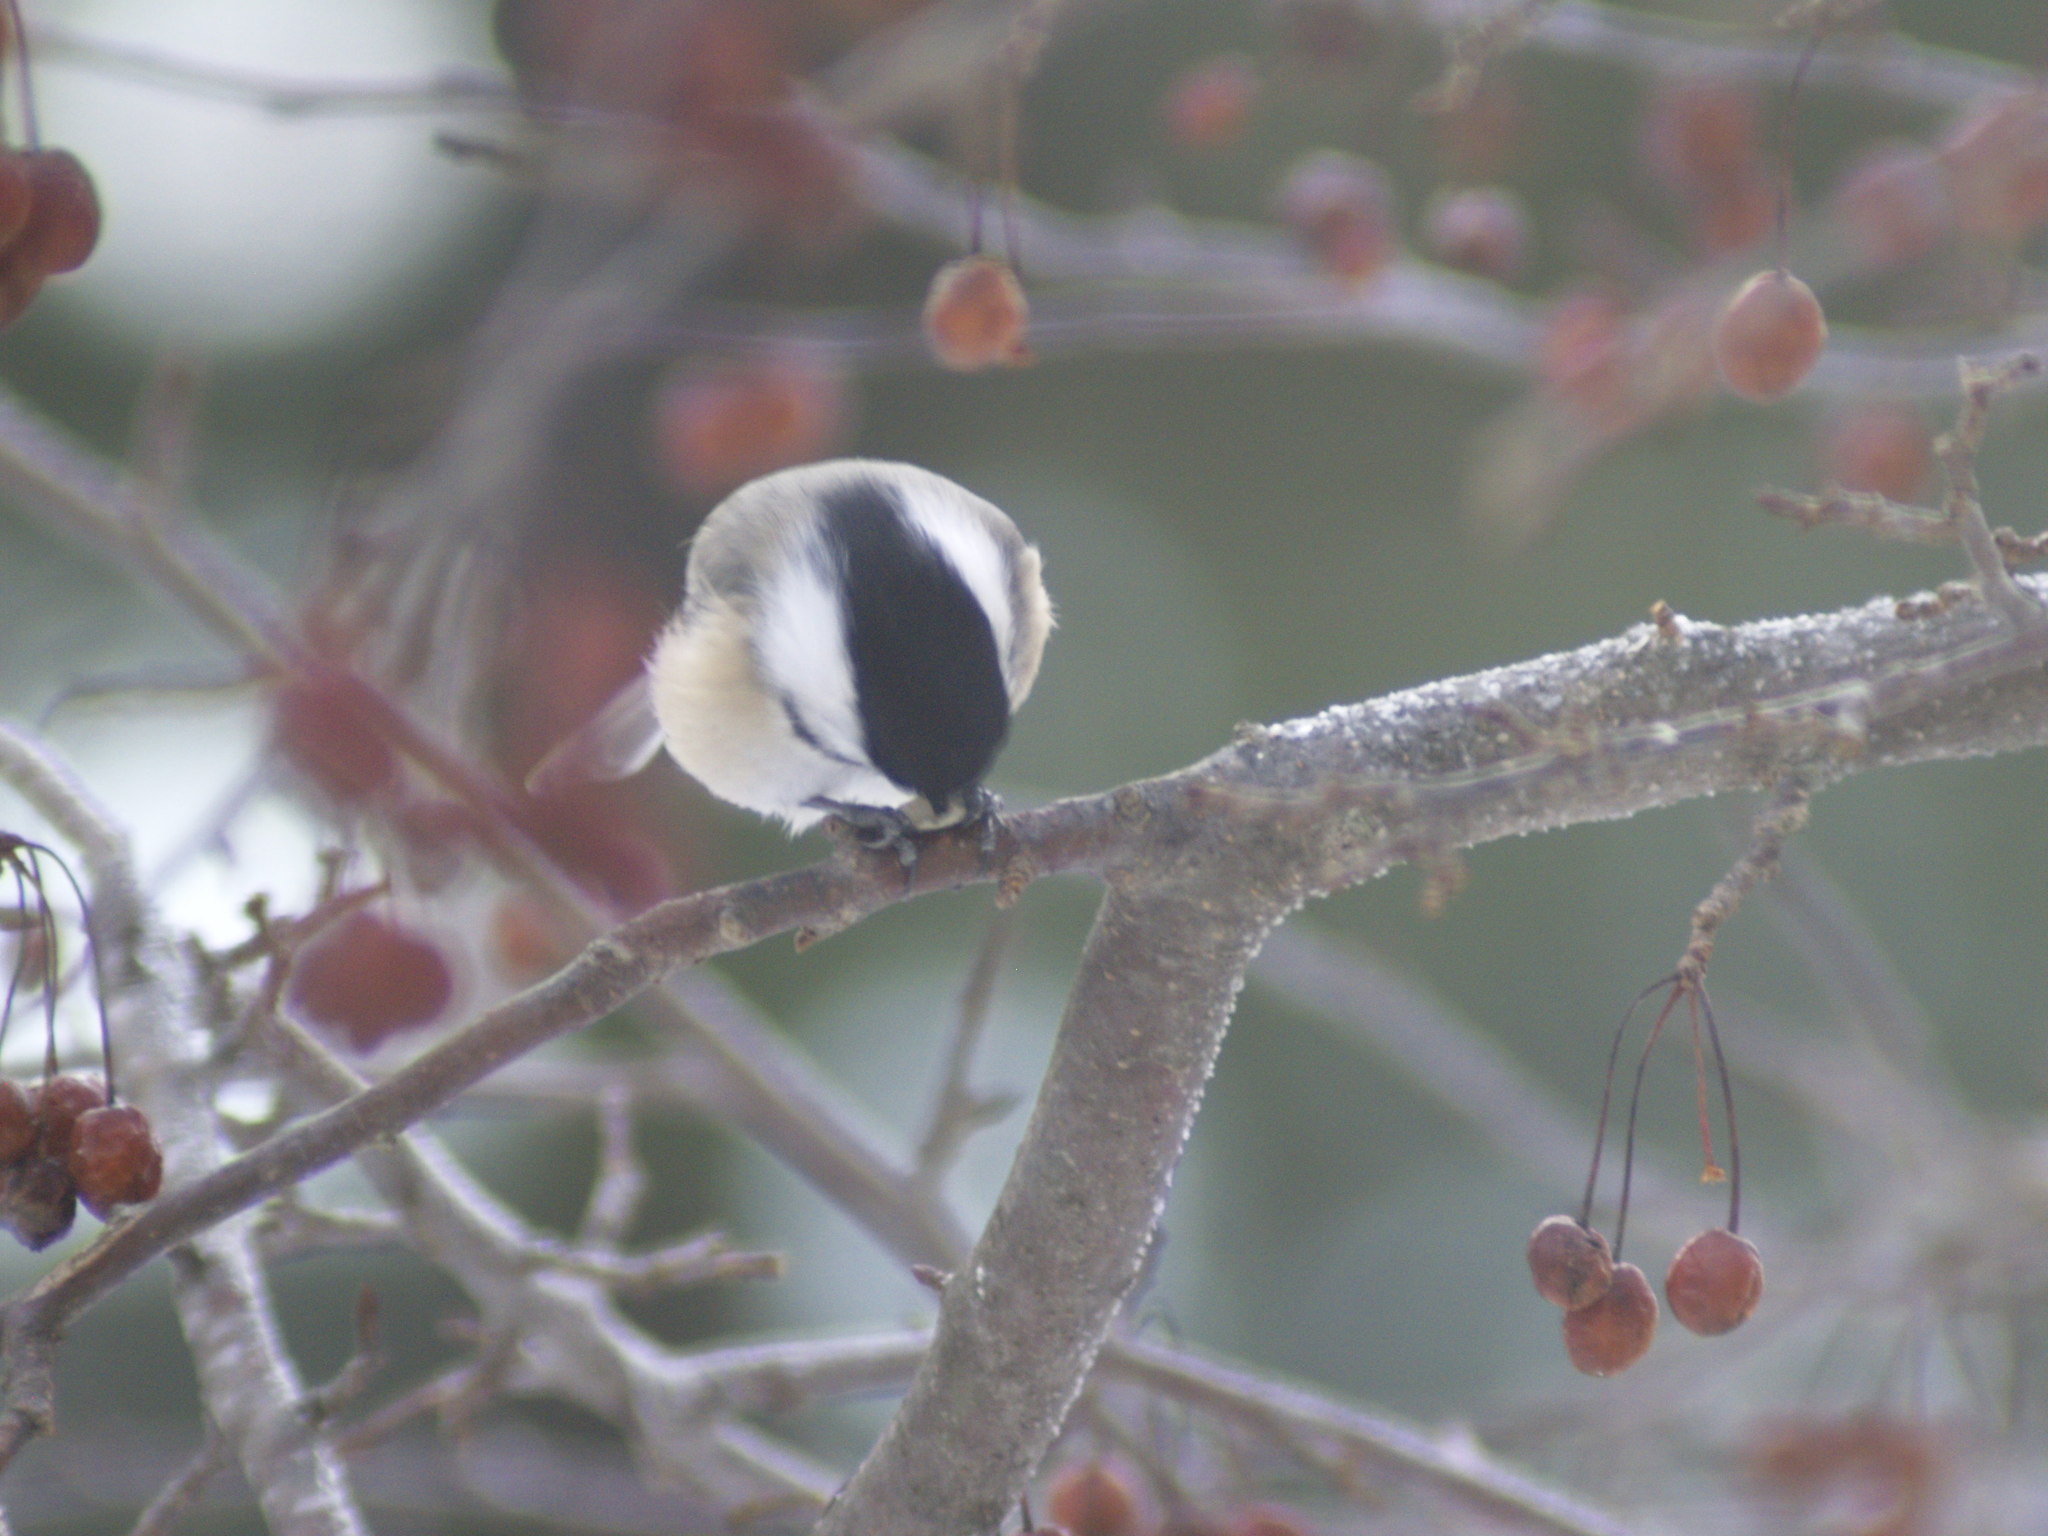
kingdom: Animalia
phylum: Chordata
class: Aves
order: Passeriformes
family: Paridae
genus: Poecile
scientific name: Poecile atricapillus
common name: Black-capped chickadee
